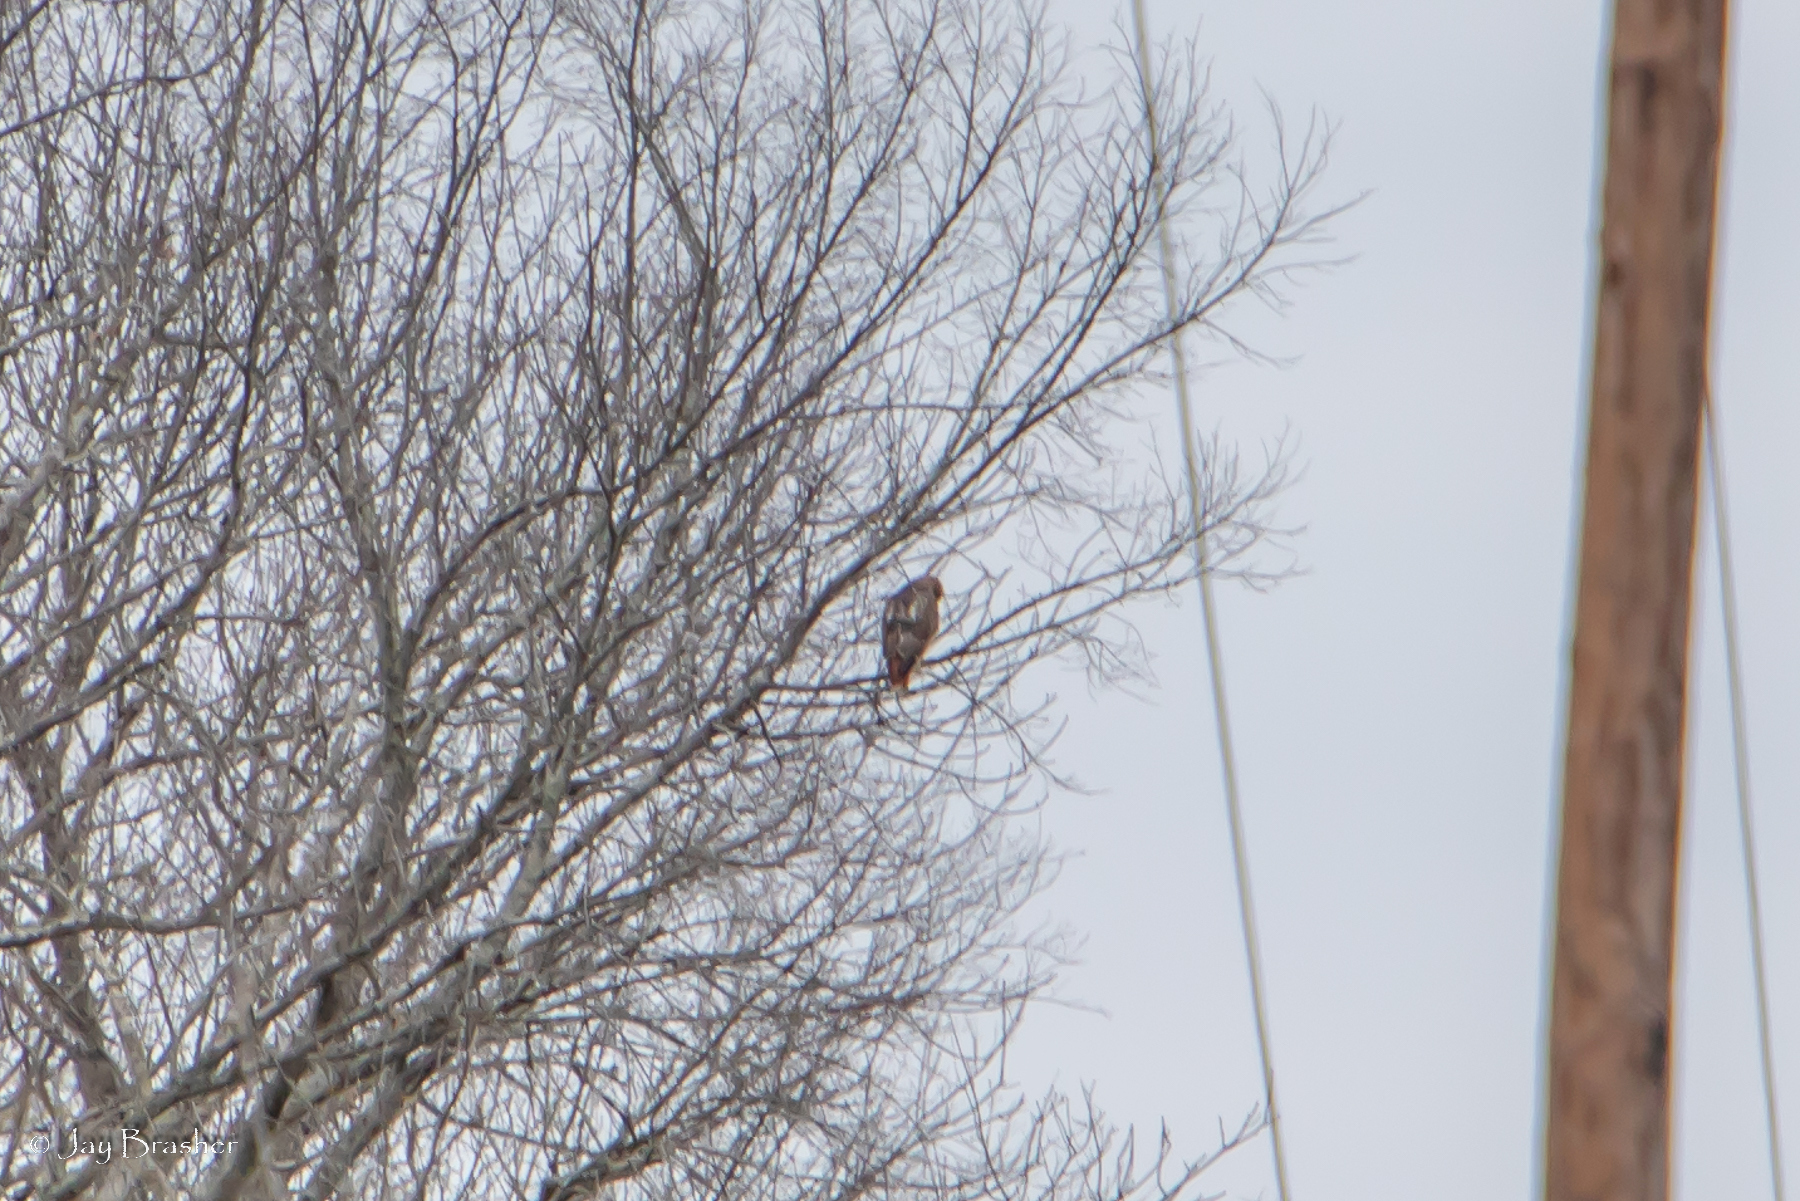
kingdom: Animalia
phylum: Chordata
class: Aves
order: Accipitriformes
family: Accipitridae
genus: Buteo
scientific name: Buteo jamaicensis
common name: Red-tailed hawk
